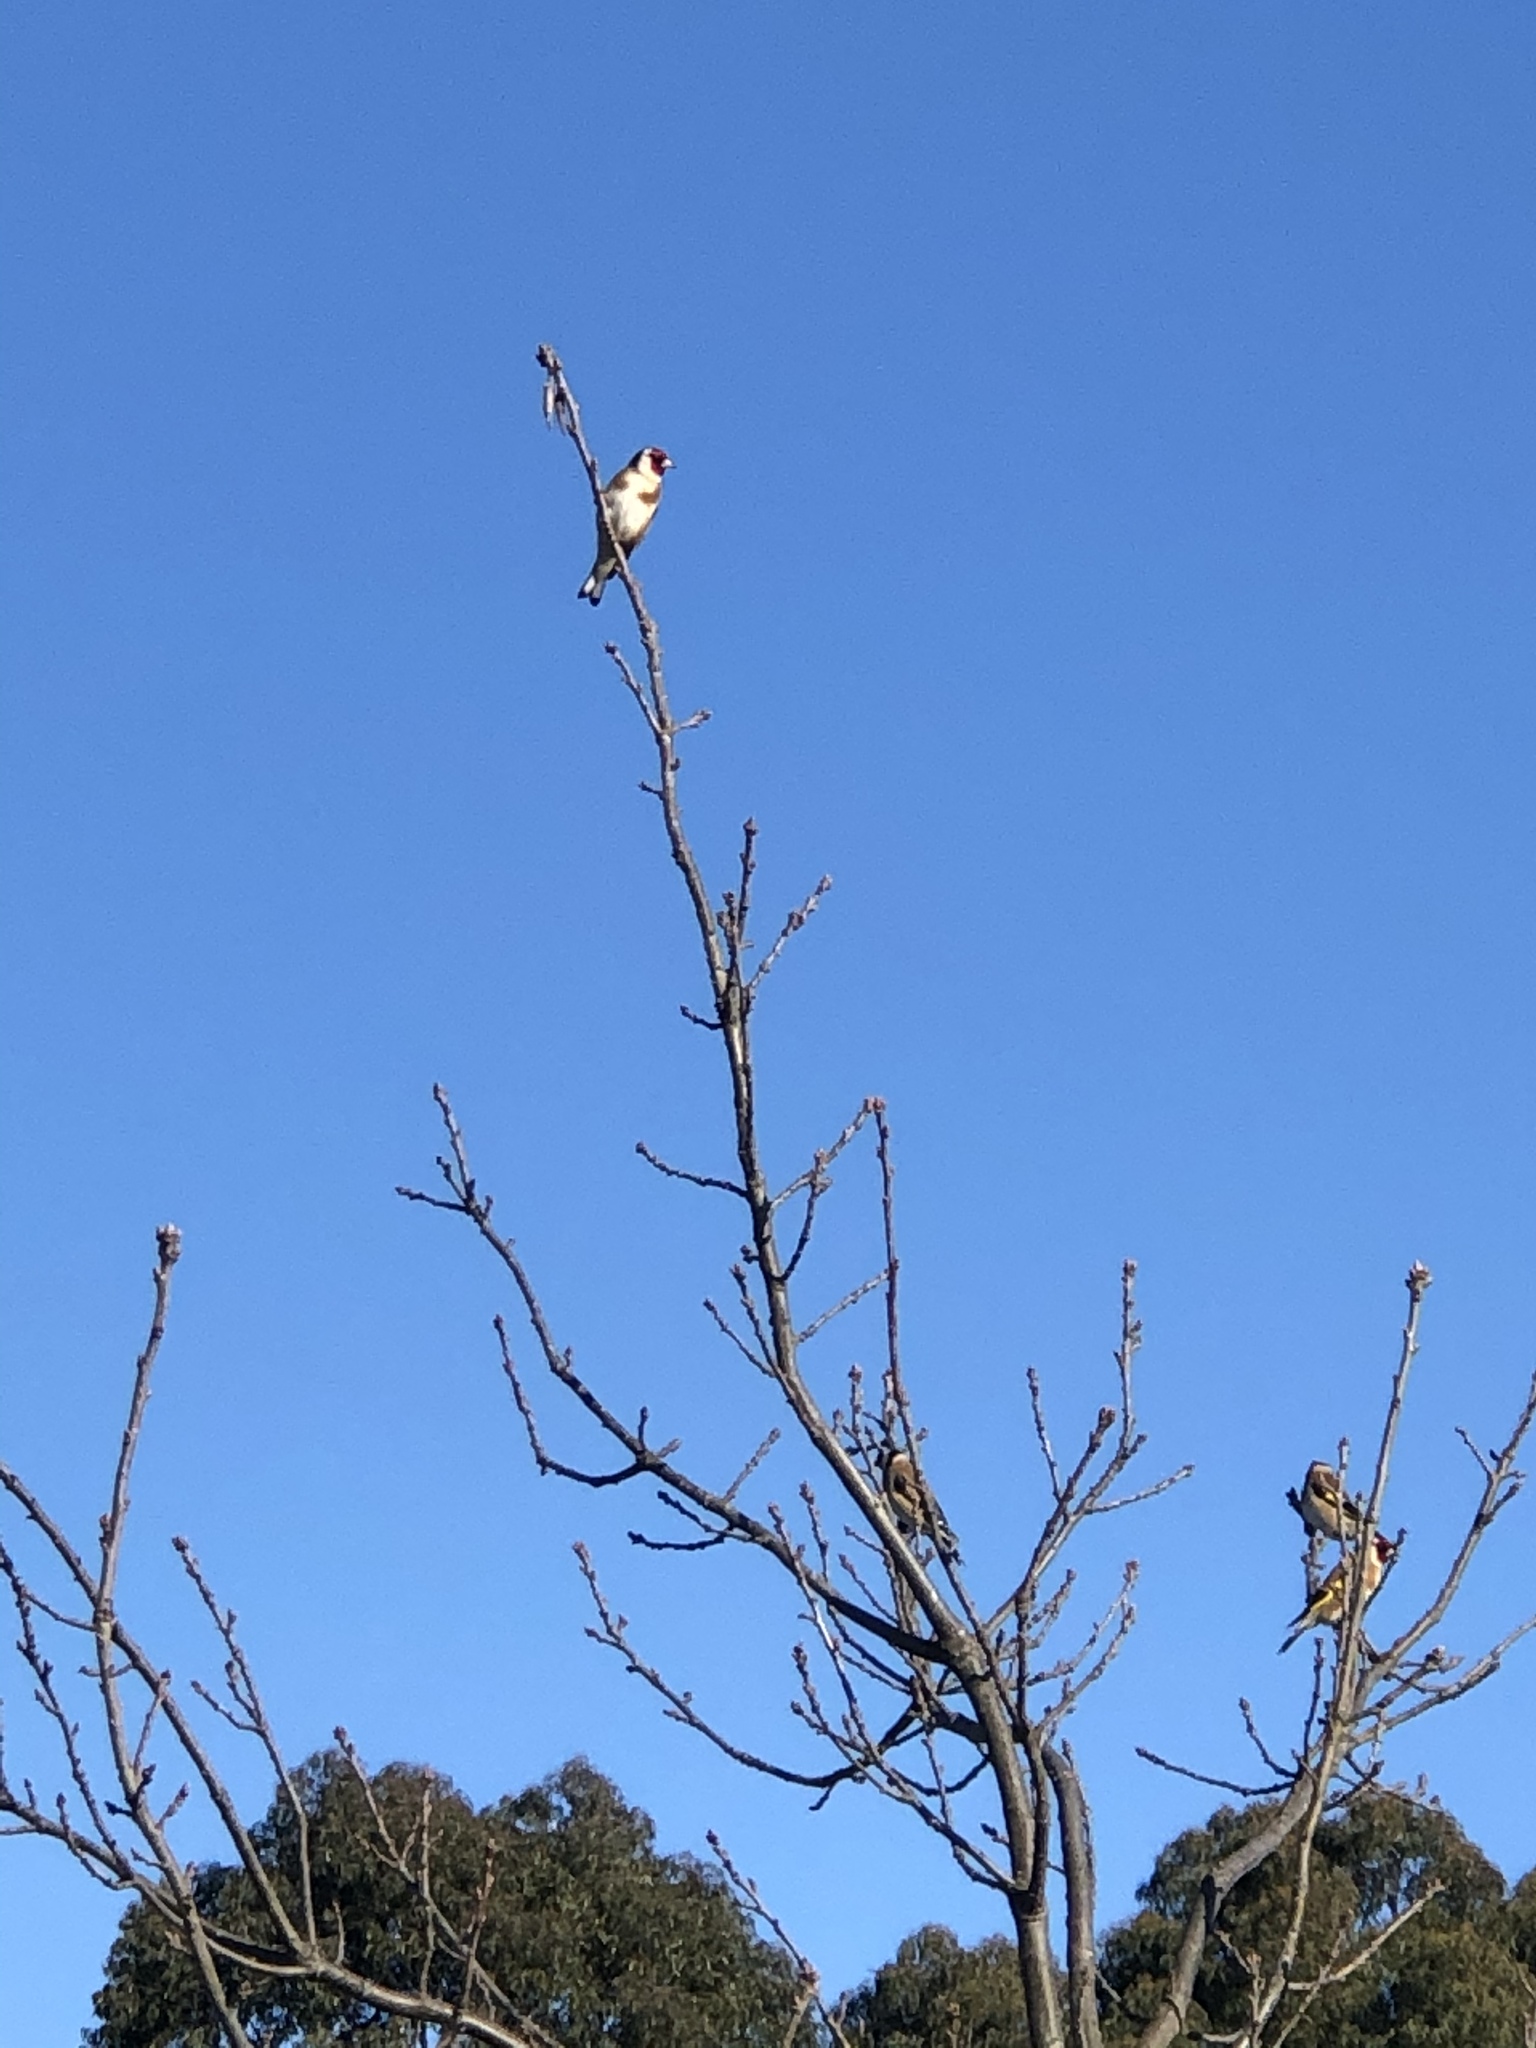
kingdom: Animalia
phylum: Chordata
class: Aves
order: Passeriformes
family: Fringillidae
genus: Carduelis
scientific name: Carduelis carduelis
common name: European goldfinch
